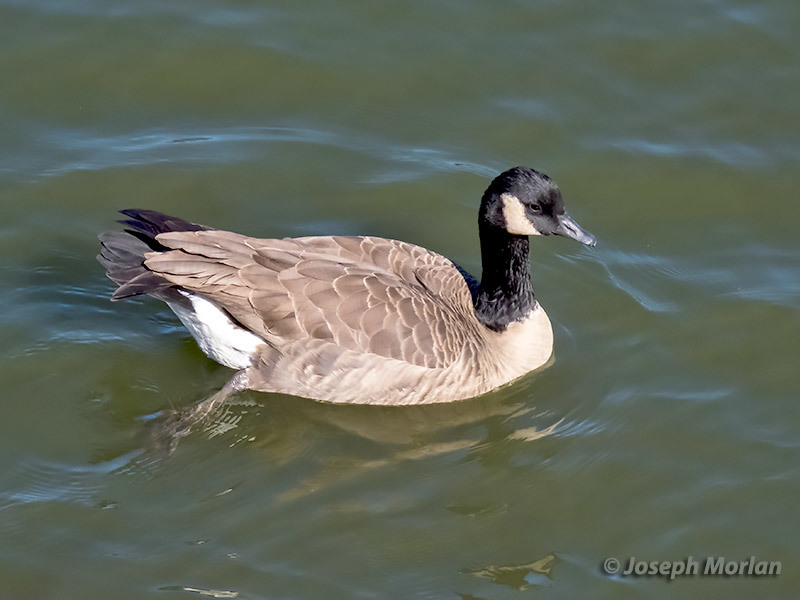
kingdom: Animalia
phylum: Chordata
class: Aves
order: Anseriformes
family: Anatidae
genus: Branta
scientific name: Branta canadensis
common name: Canada goose
